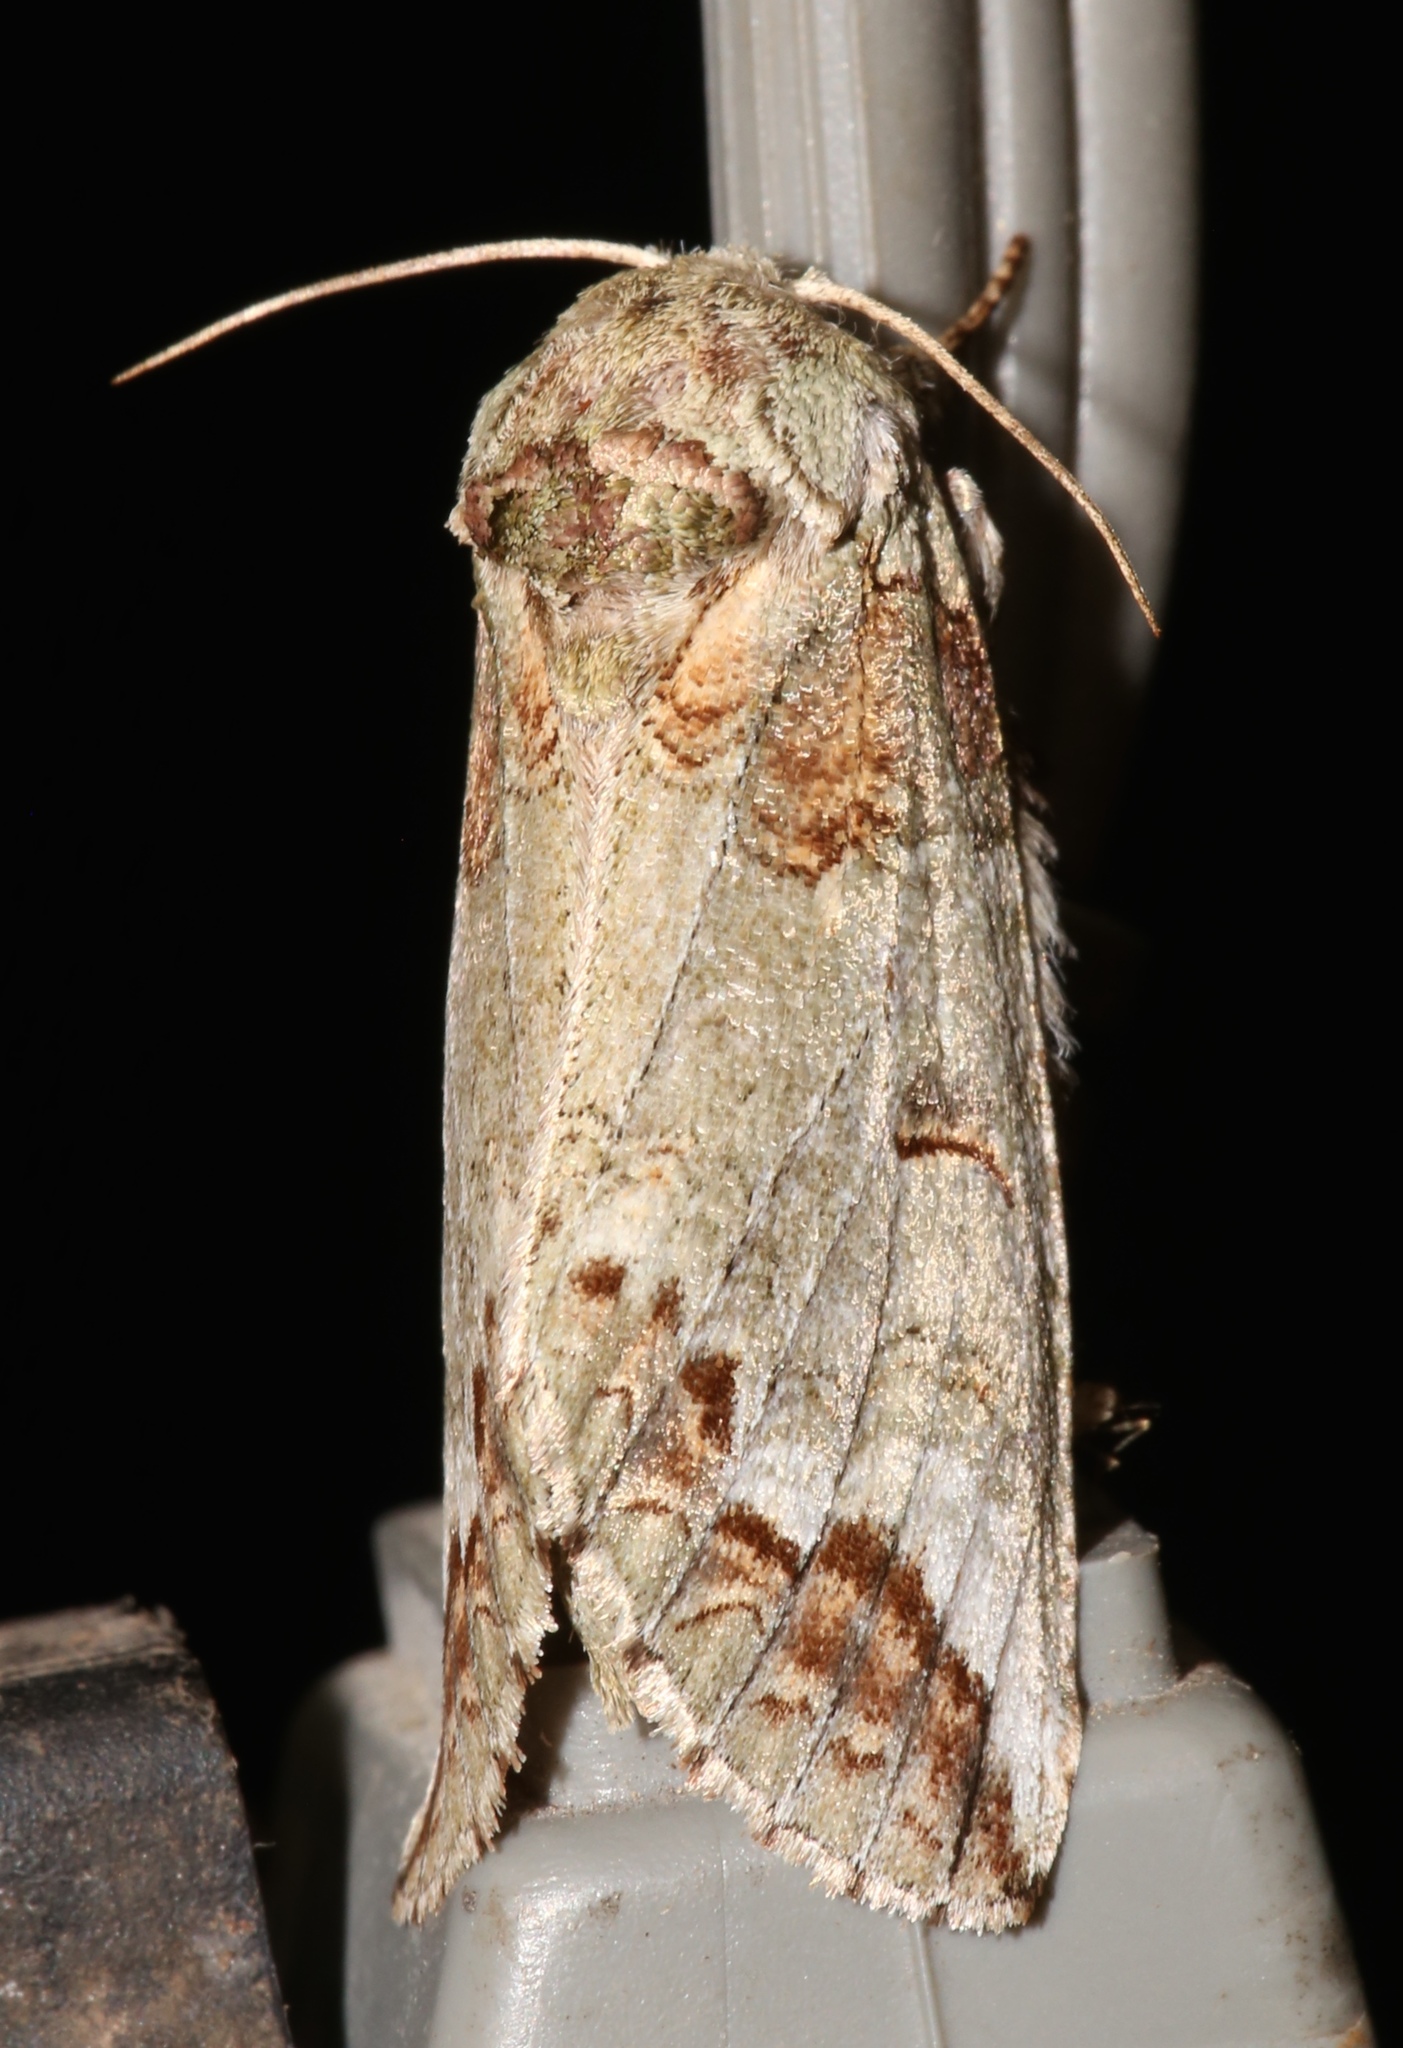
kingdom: Animalia
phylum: Arthropoda
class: Insecta
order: Lepidoptera
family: Notodontidae
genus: Heterocampa
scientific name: Heterocampa astarte
